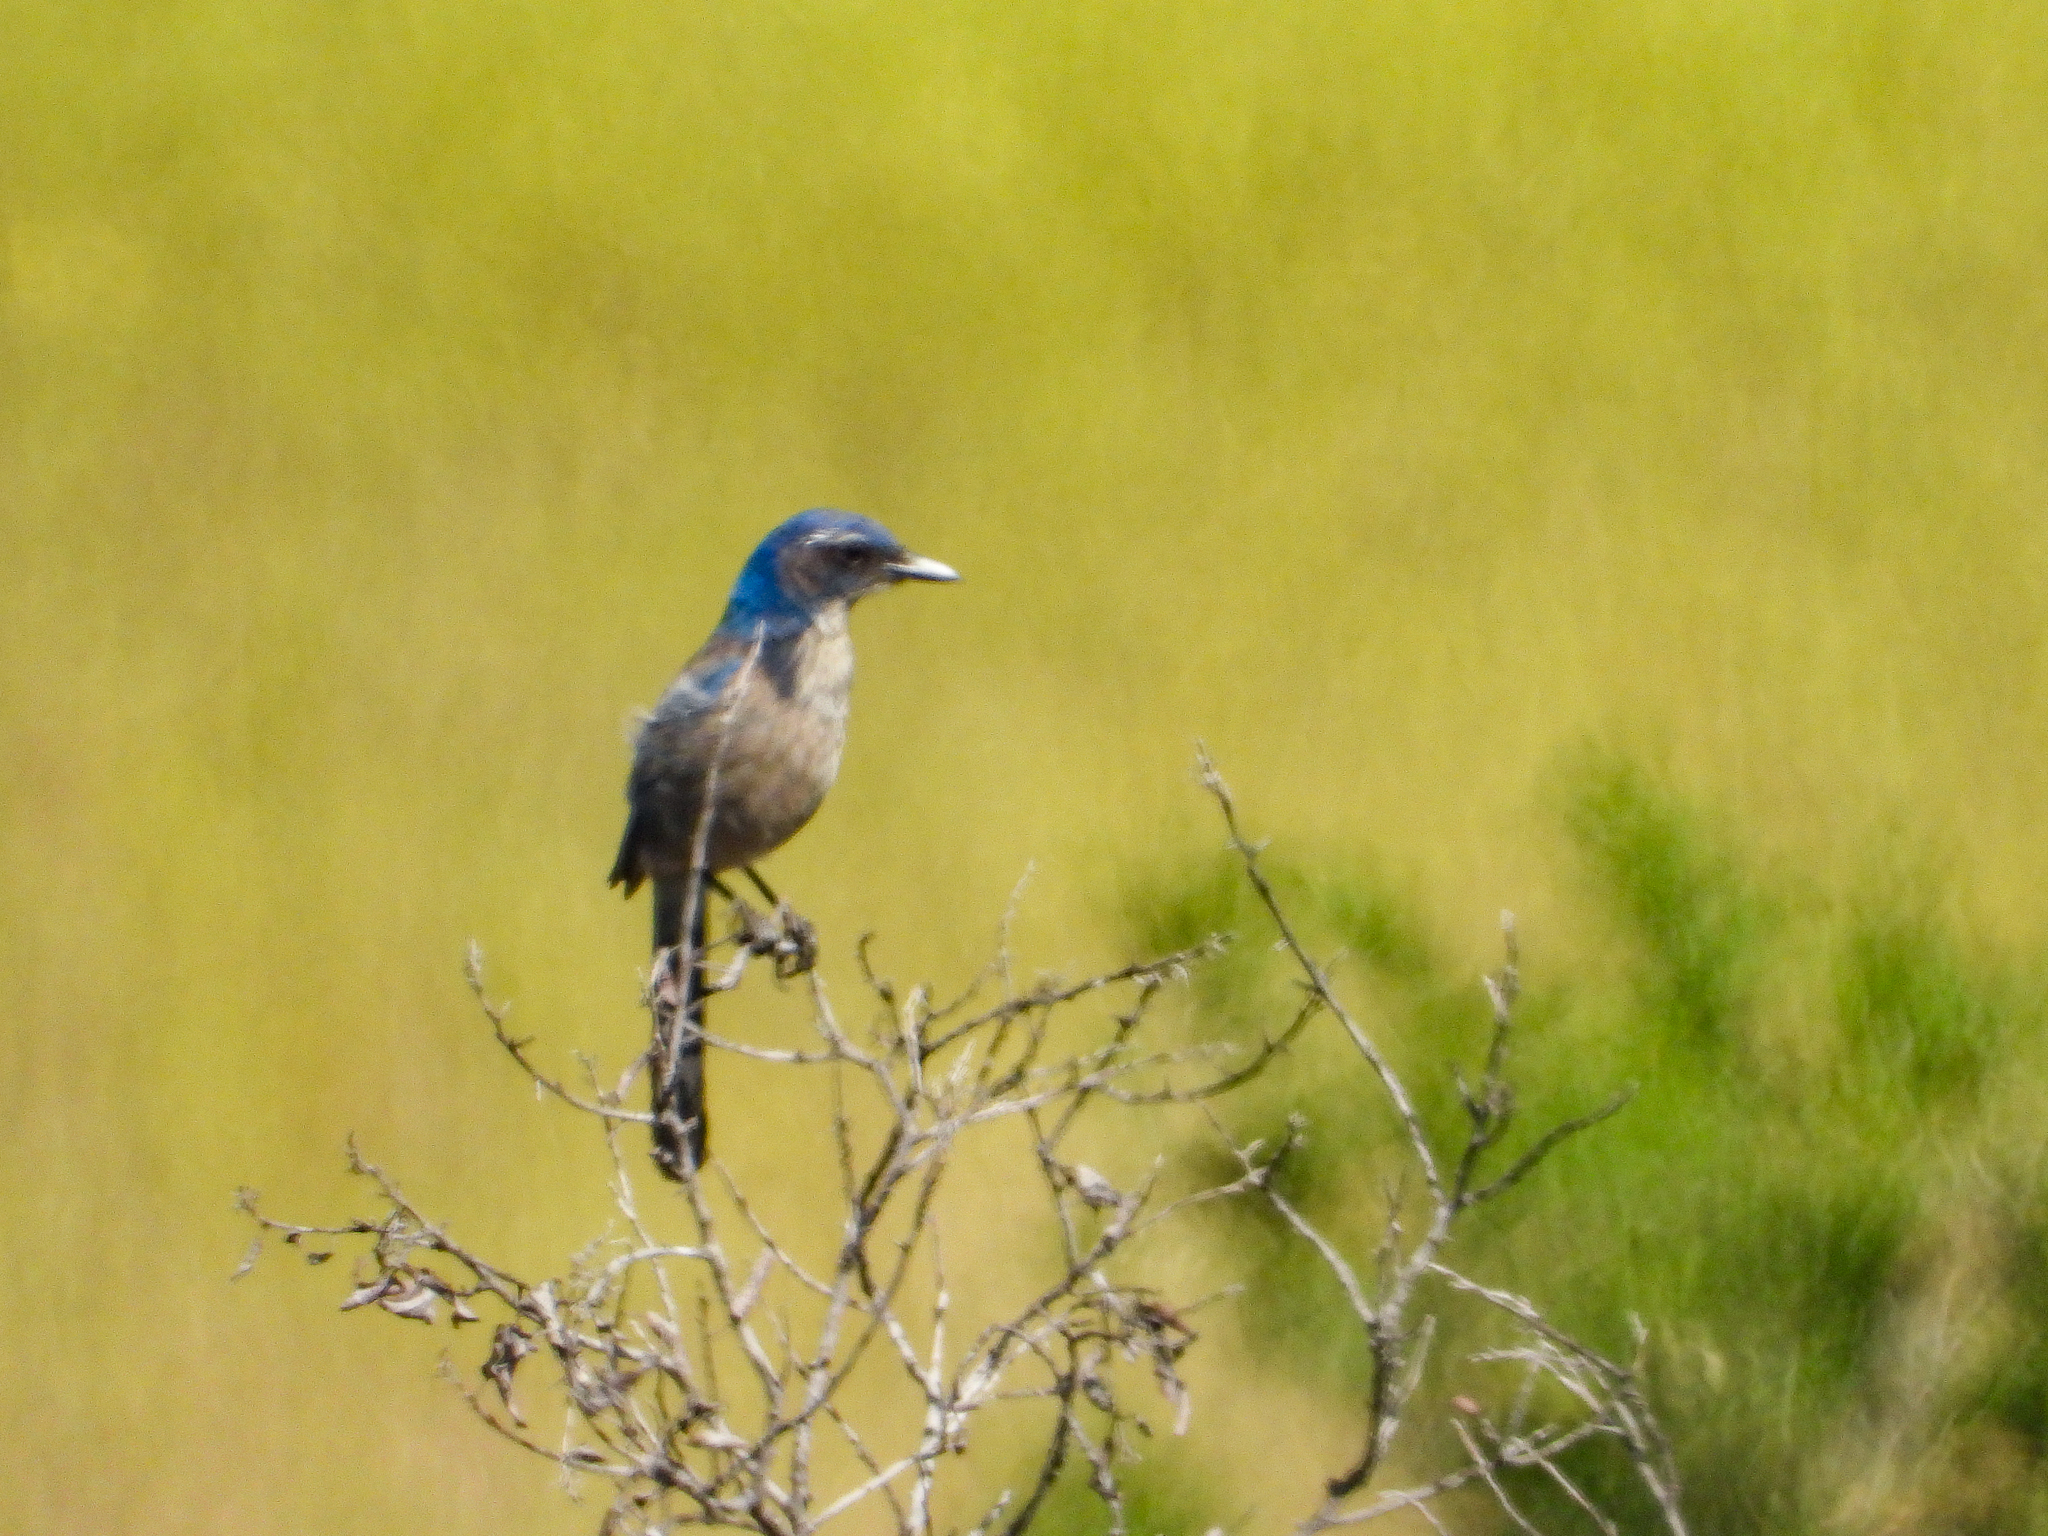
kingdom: Animalia
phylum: Chordata
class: Aves
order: Passeriformes
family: Corvidae
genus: Aphelocoma
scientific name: Aphelocoma californica
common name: California scrub-jay
